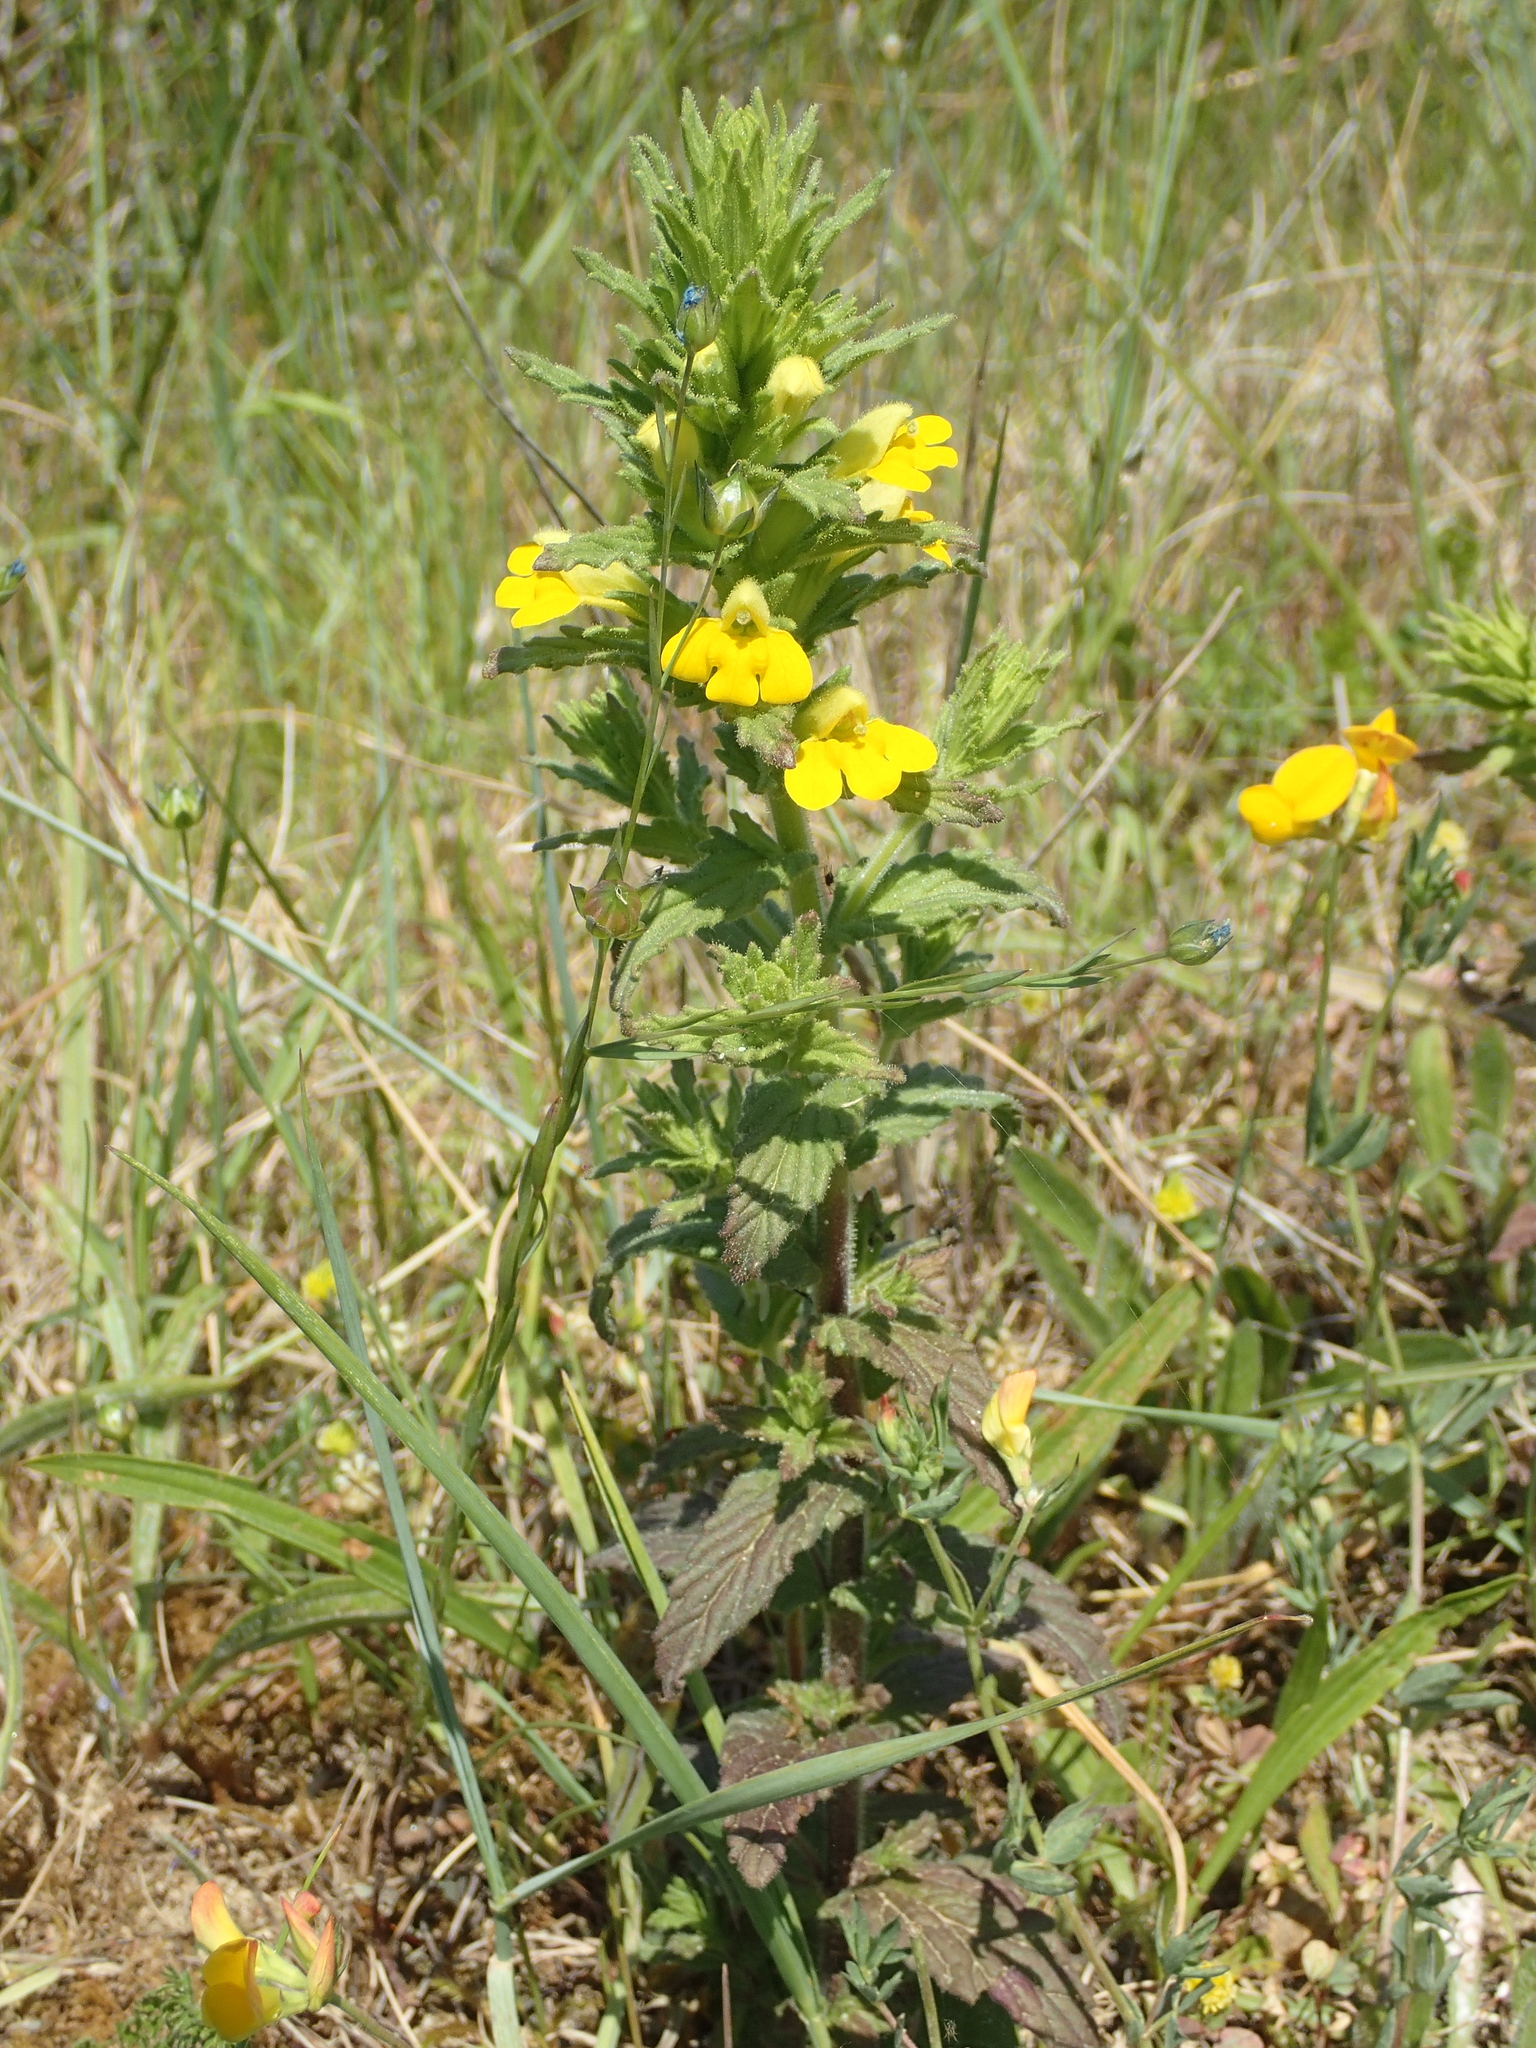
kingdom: Plantae
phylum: Tracheophyta
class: Magnoliopsida
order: Lamiales
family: Orobanchaceae
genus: Bellardia
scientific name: Bellardia viscosa
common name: Sticky parentucellia
